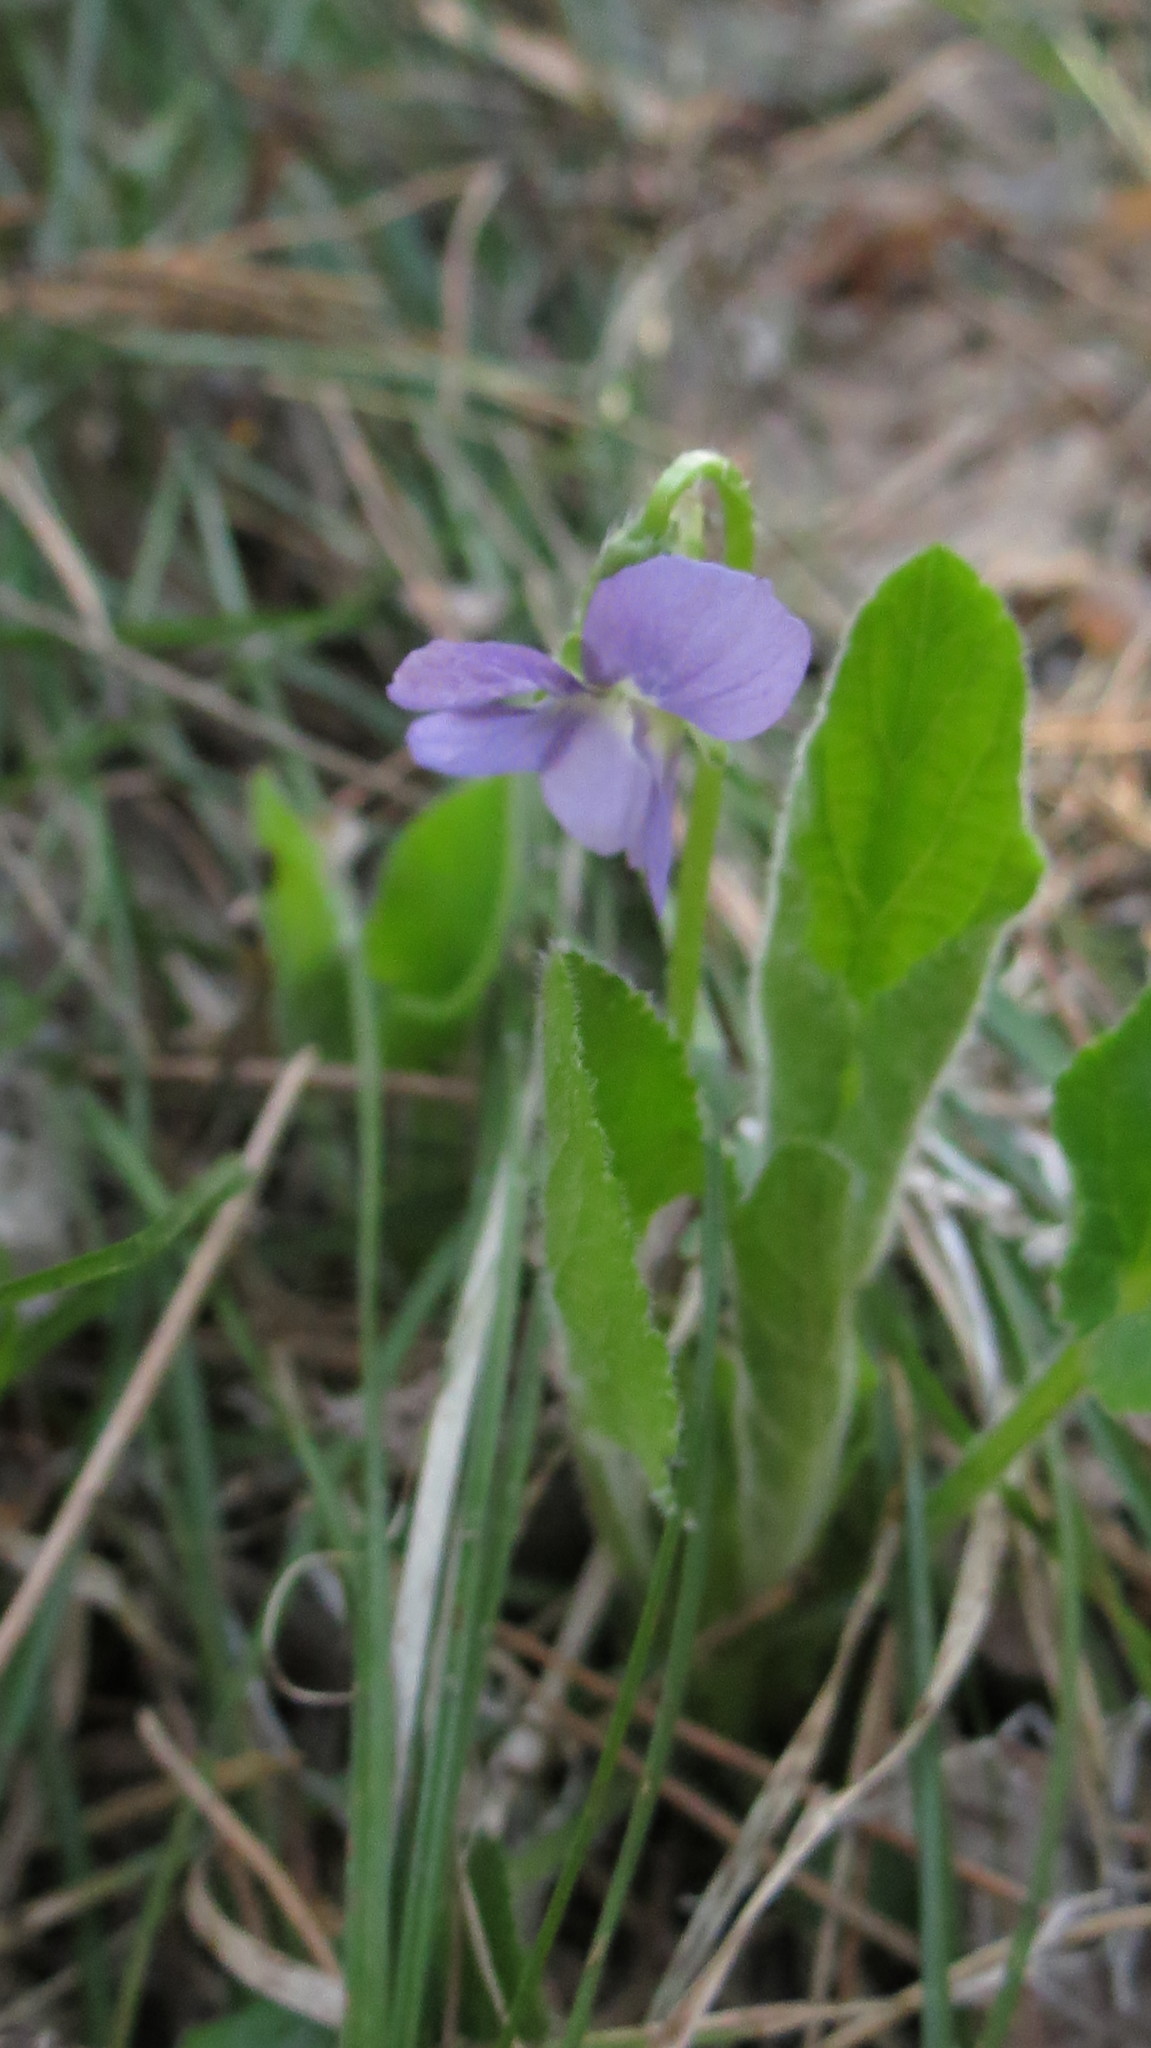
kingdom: Plantae
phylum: Tracheophyta
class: Magnoliopsida
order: Malpighiales
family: Violaceae
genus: Viola
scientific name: Viola hirta
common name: Hairy violet
